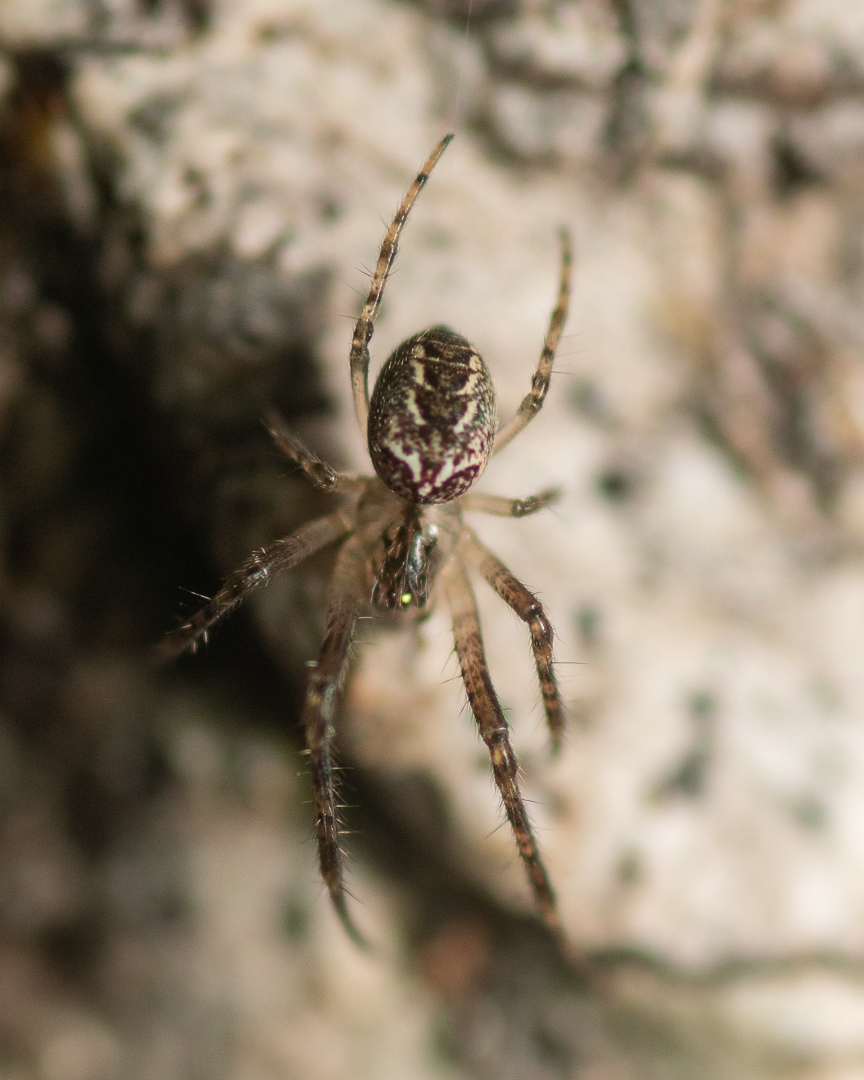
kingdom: Animalia
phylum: Arthropoda
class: Arachnida
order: Araneae
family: Tetragnathidae
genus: Allende
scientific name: Allende nigrohumeralis
